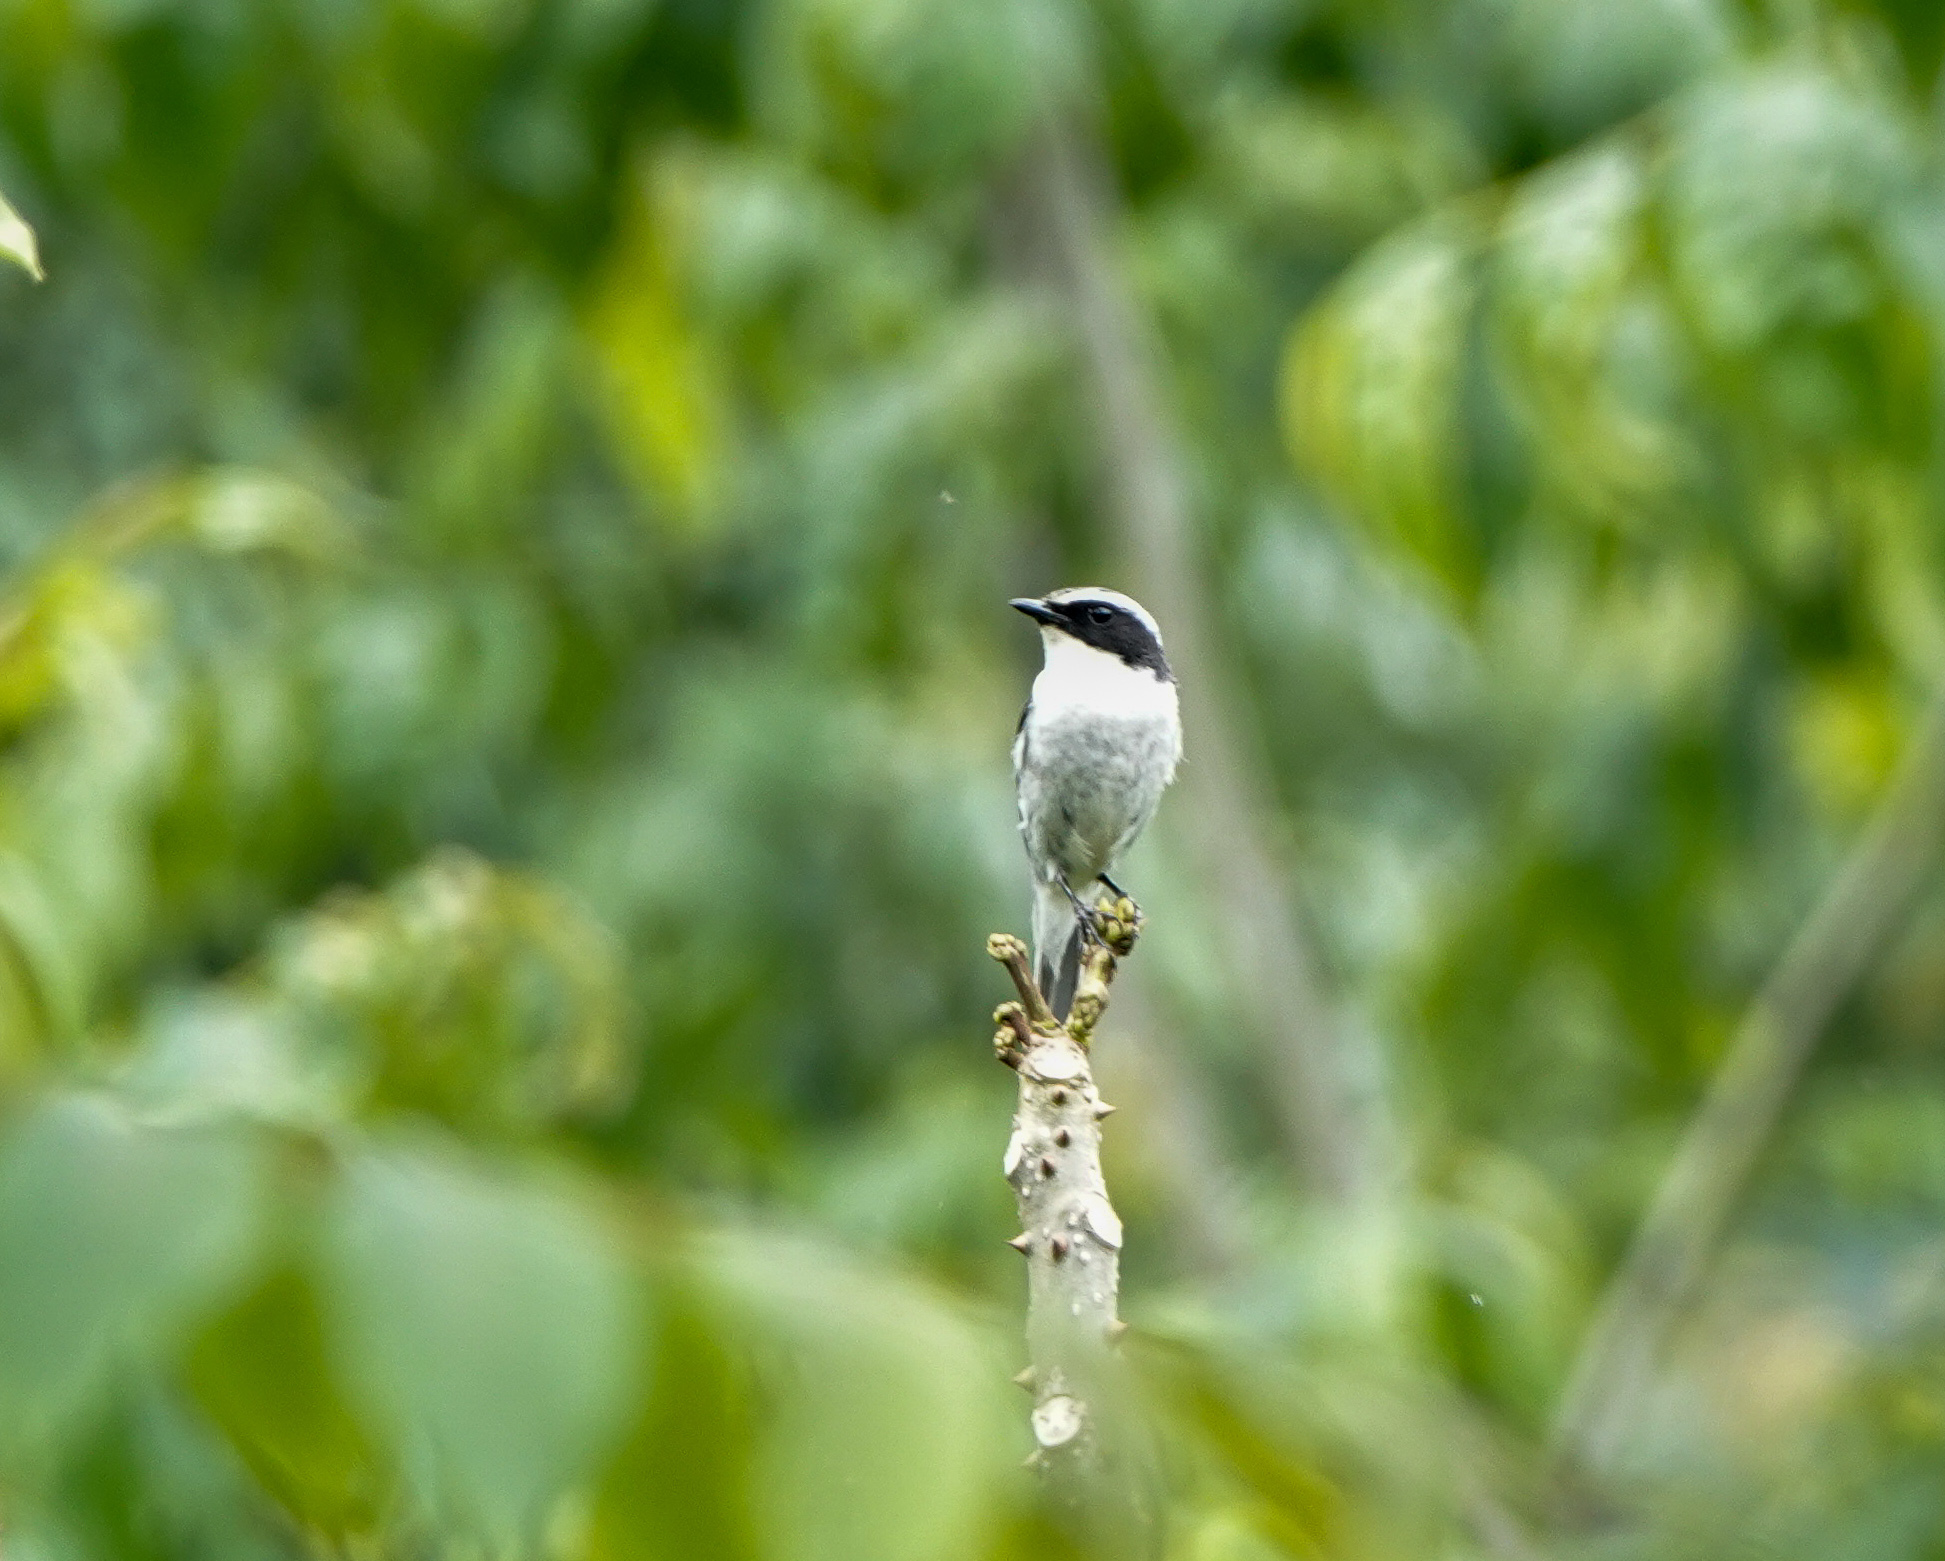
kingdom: Animalia
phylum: Chordata
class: Aves
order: Passeriformes
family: Muscicapidae
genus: Saxicola
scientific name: Saxicola ferreus
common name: Grey bush chat
